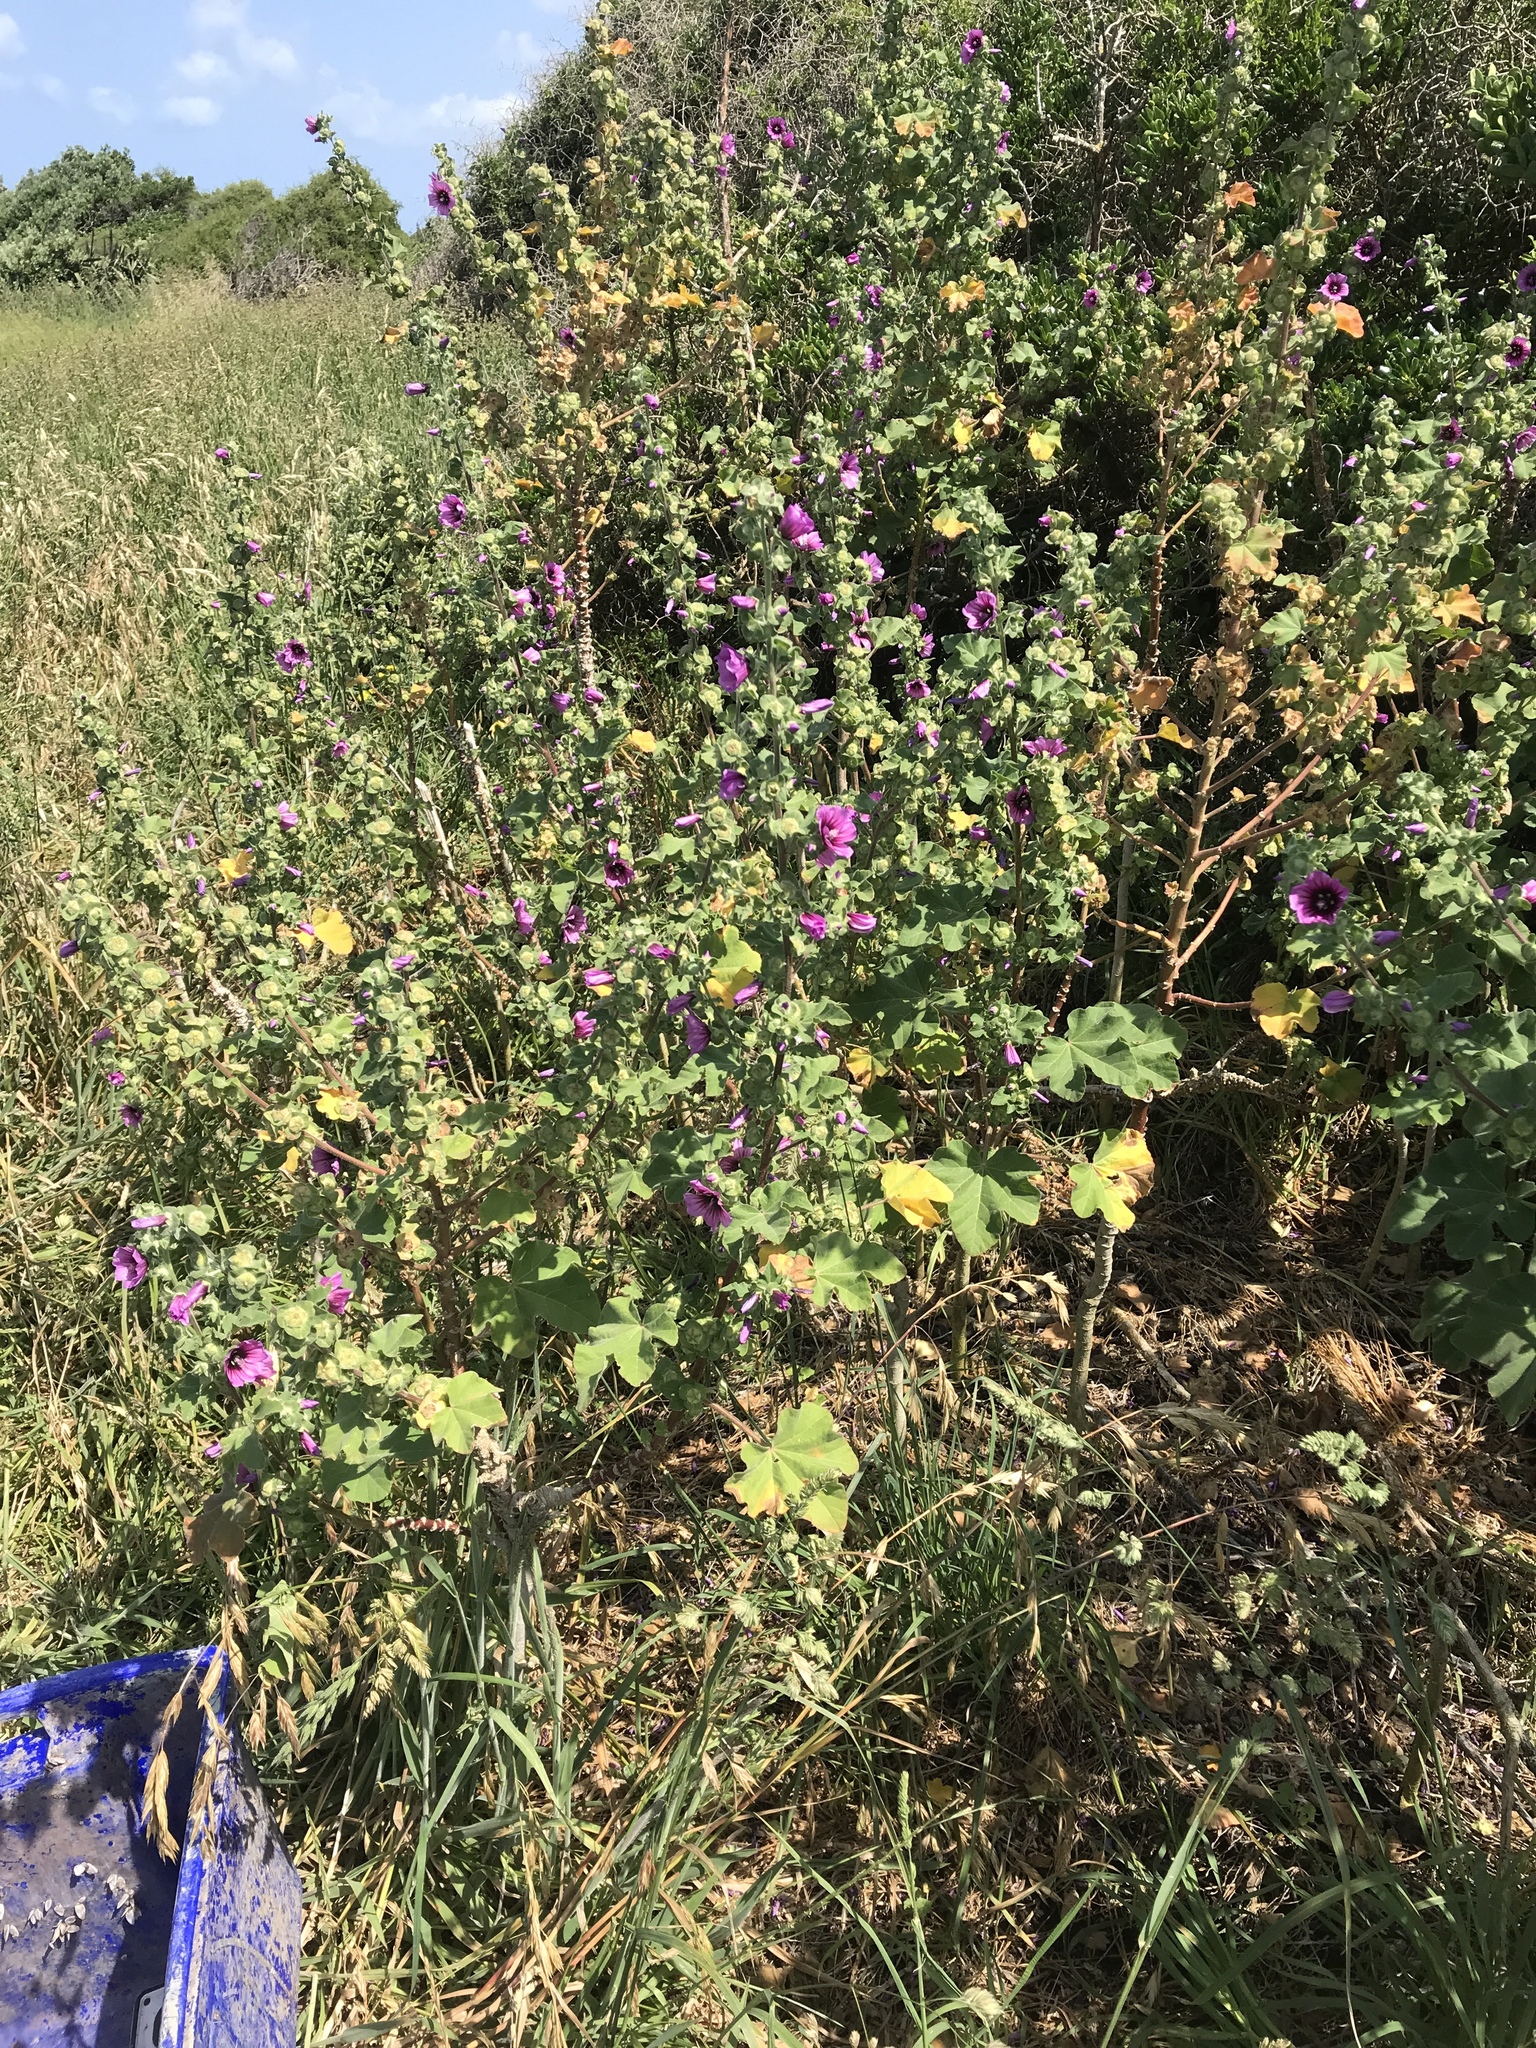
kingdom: Plantae
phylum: Tracheophyta
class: Magnoliopsida
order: Malvales
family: Malvaceae
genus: Malva
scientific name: Malva arborea
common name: Tree mallow
